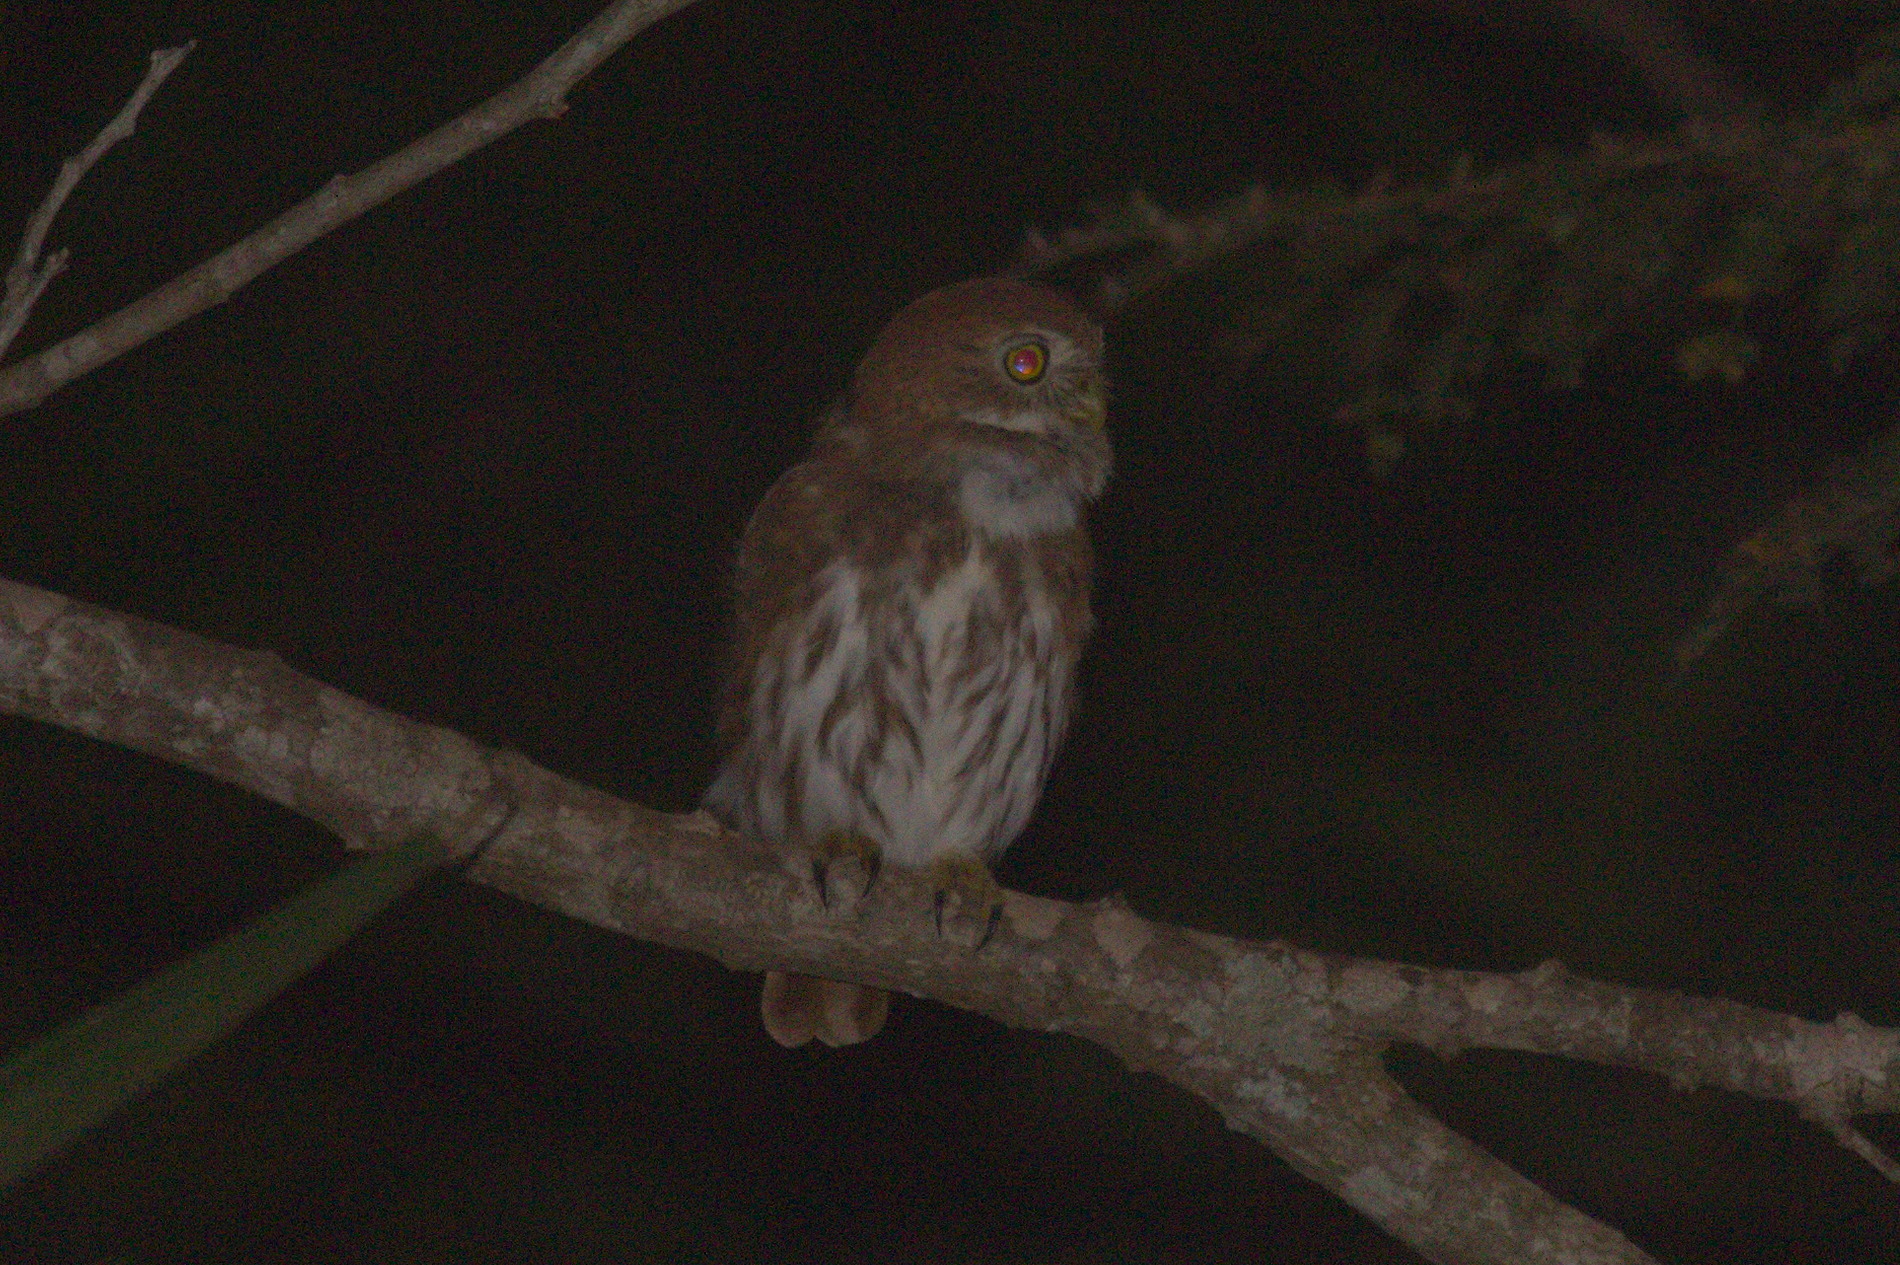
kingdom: Animalia
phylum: Chordata
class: Aves
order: Strigiformes
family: Strigidae
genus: Glaucidium
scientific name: Glaucidium brasilianum
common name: Ferruginous pygmy-owl
